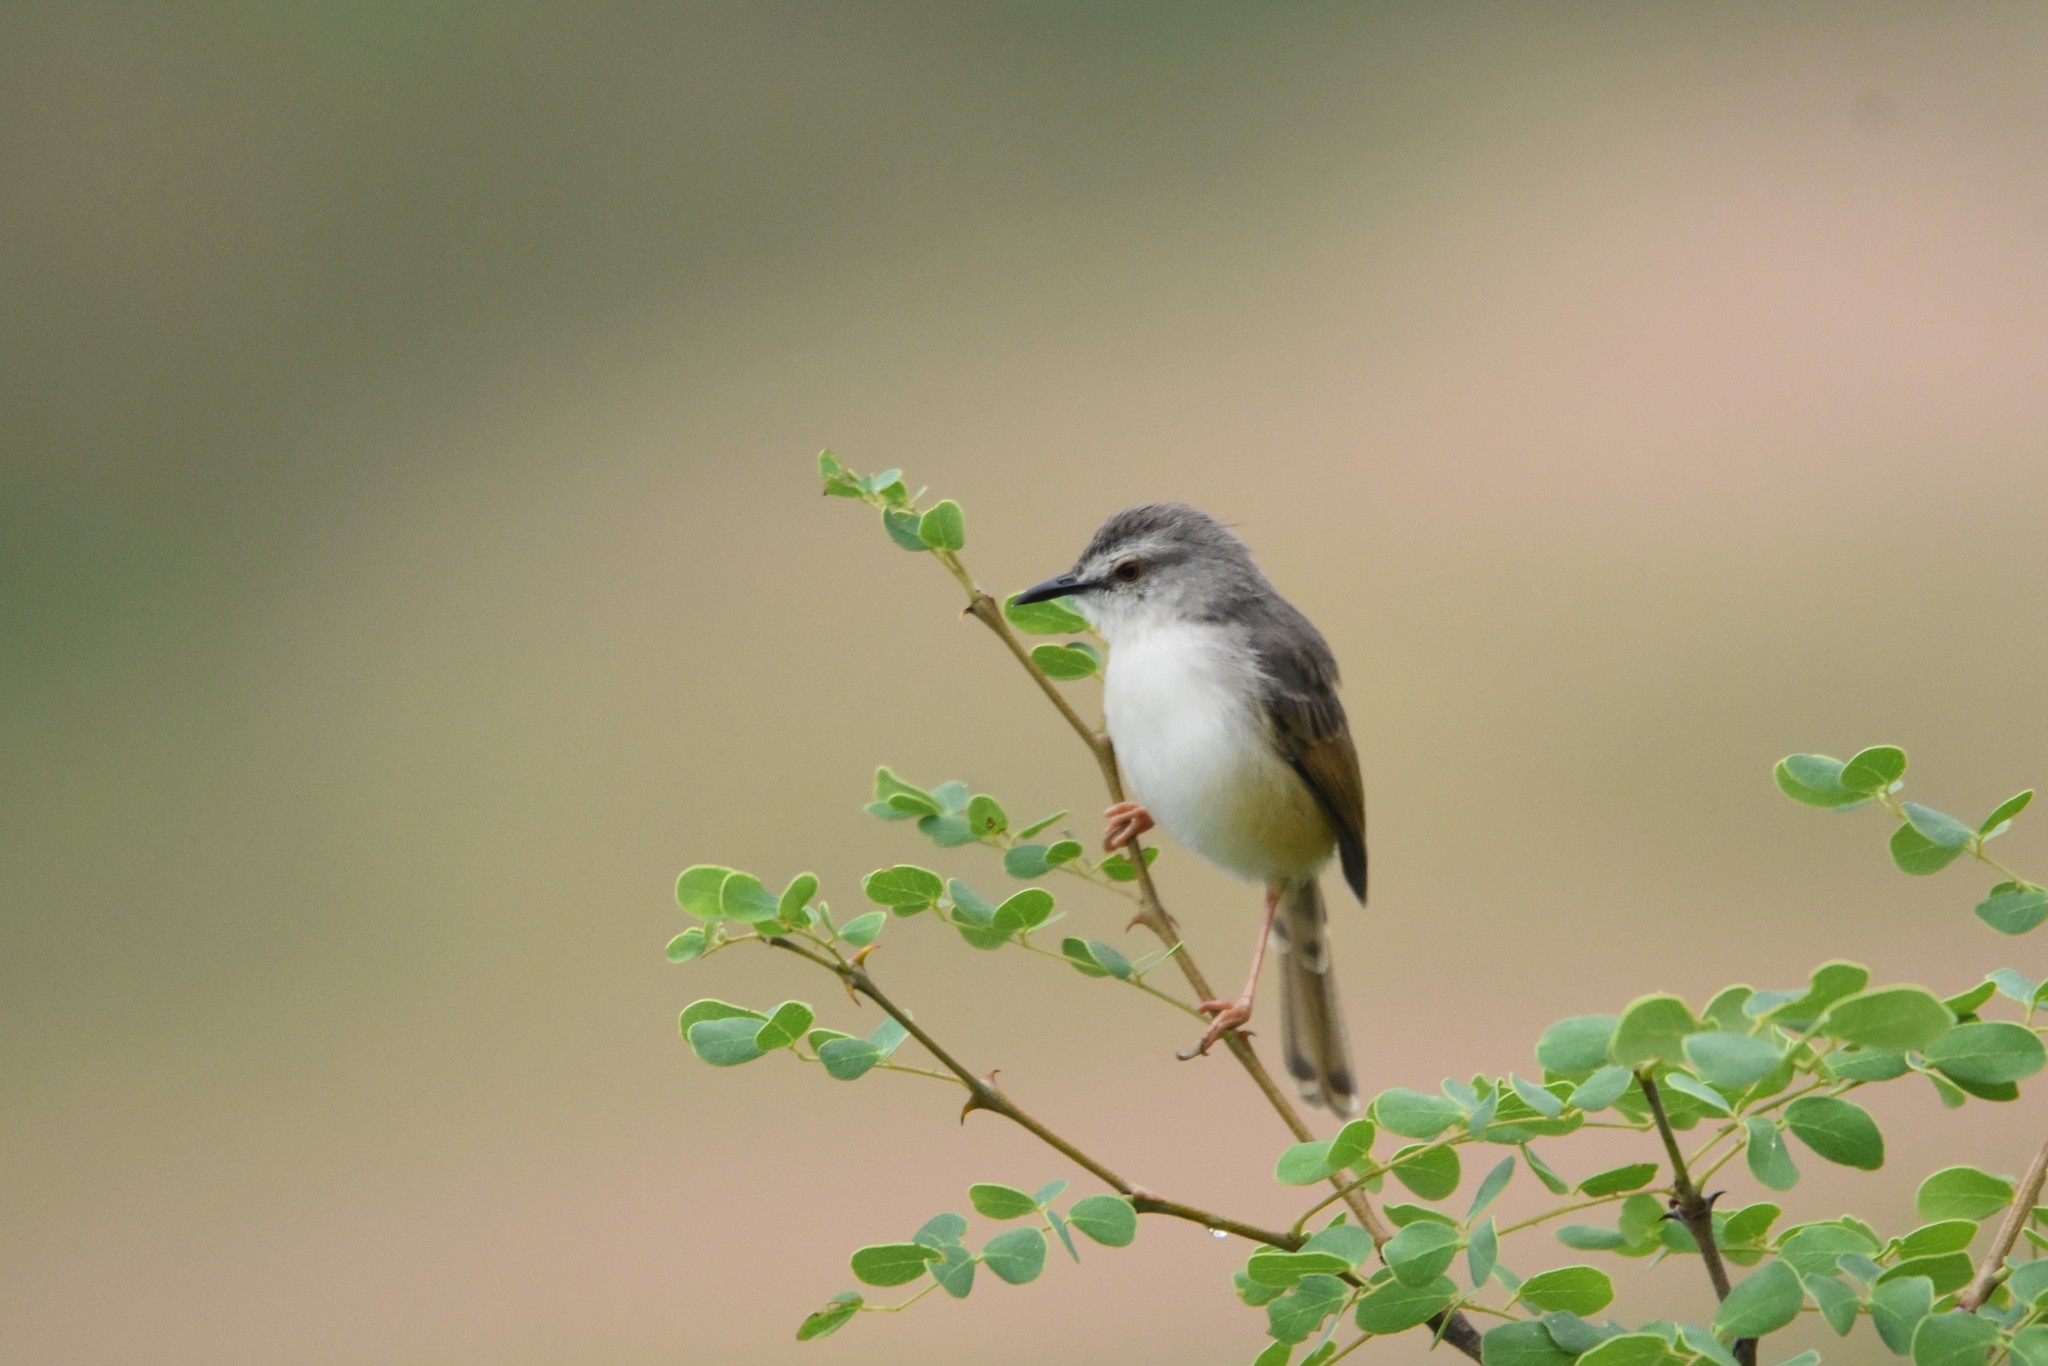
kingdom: Animalia
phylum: Chordata
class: Aves
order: Passeriformes
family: Cisticolidae
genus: Prinia
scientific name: Prinia subflava
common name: Tawny-flanked prinia
